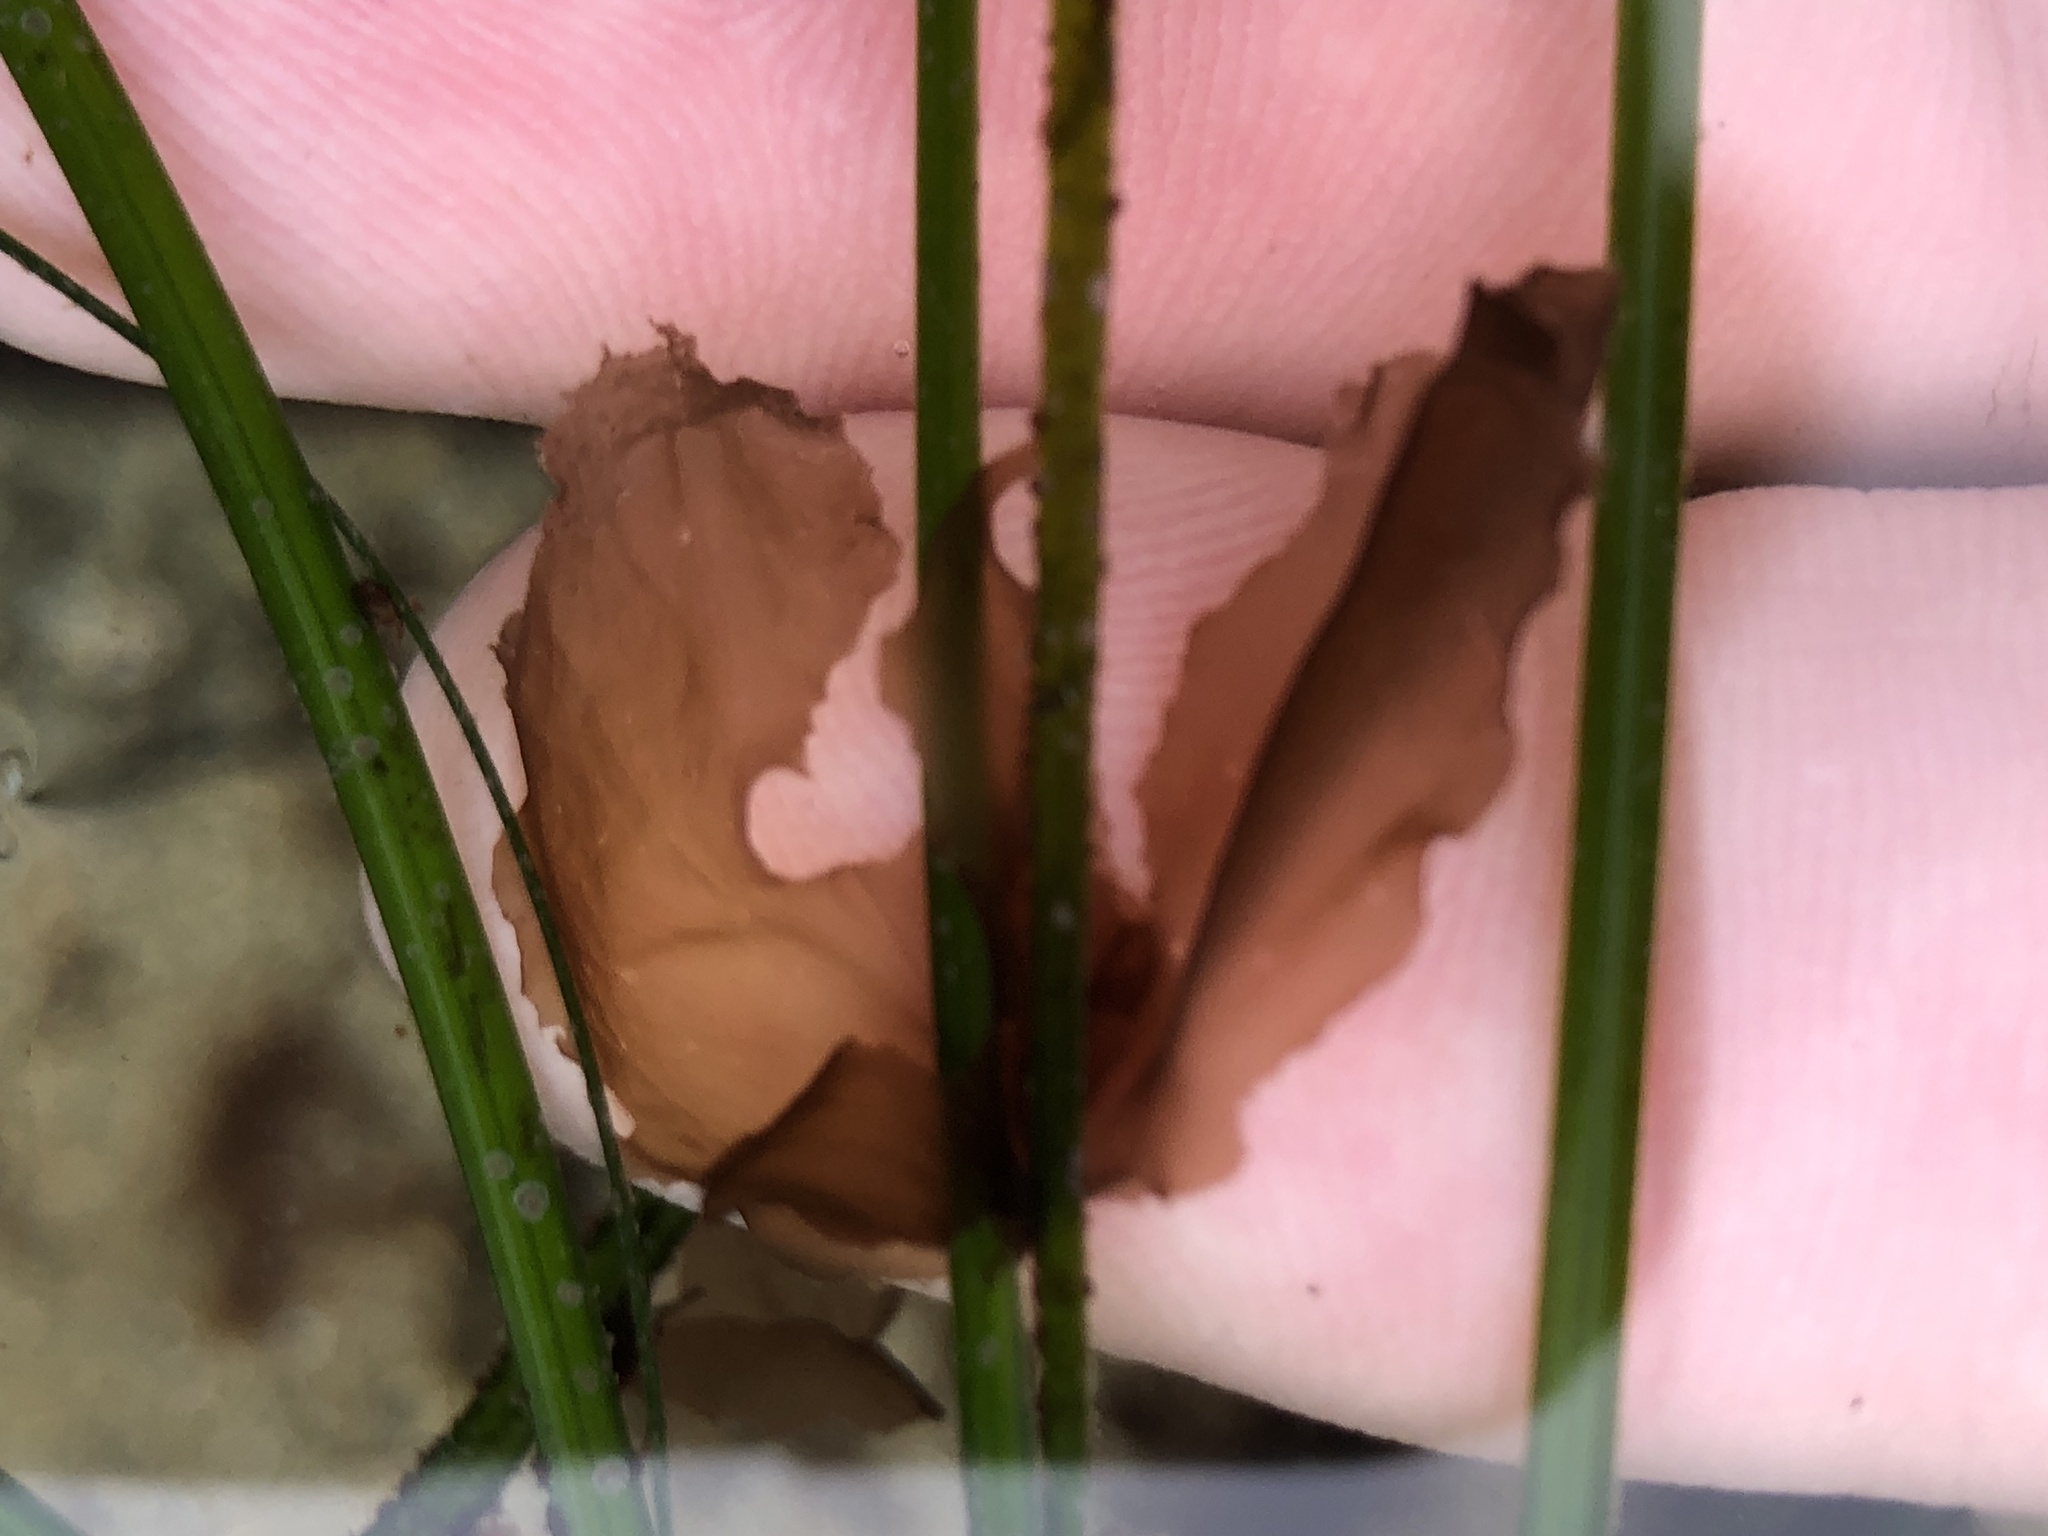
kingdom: Plantae
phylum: Rhodophyta
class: Compsopogonophyceae
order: Erythropeltidales
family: Erythrotrichiaceae
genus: Smithora
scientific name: Smithora naiadum
